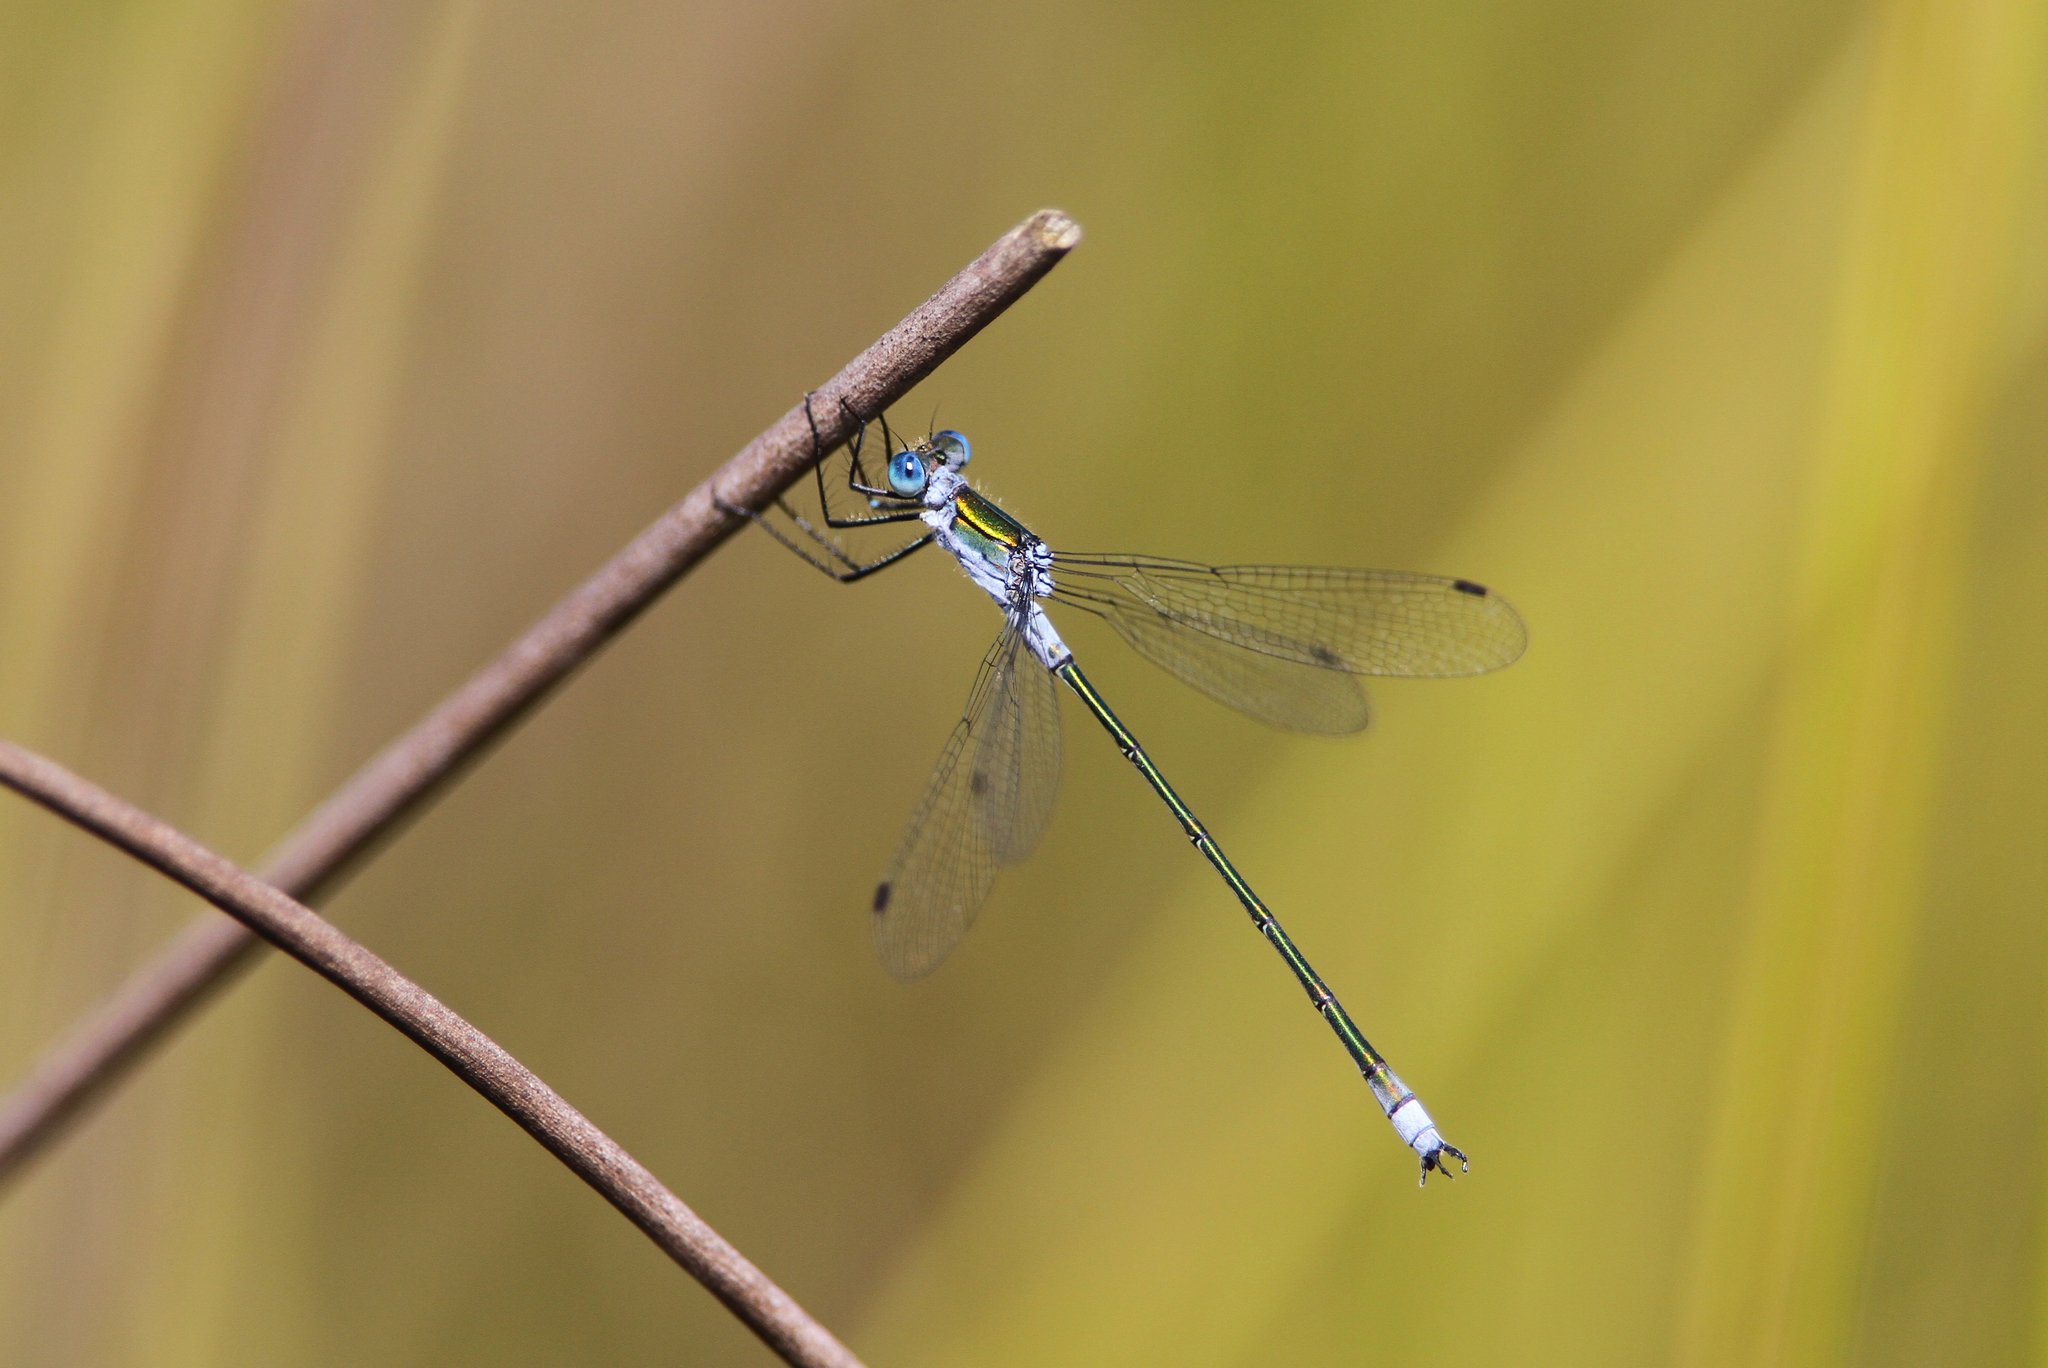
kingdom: Animalia
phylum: Arthropoda
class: Insecta
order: Odonata
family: Lestidae
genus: Lestes
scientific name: Lestes sponsa
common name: Common spreadwing
